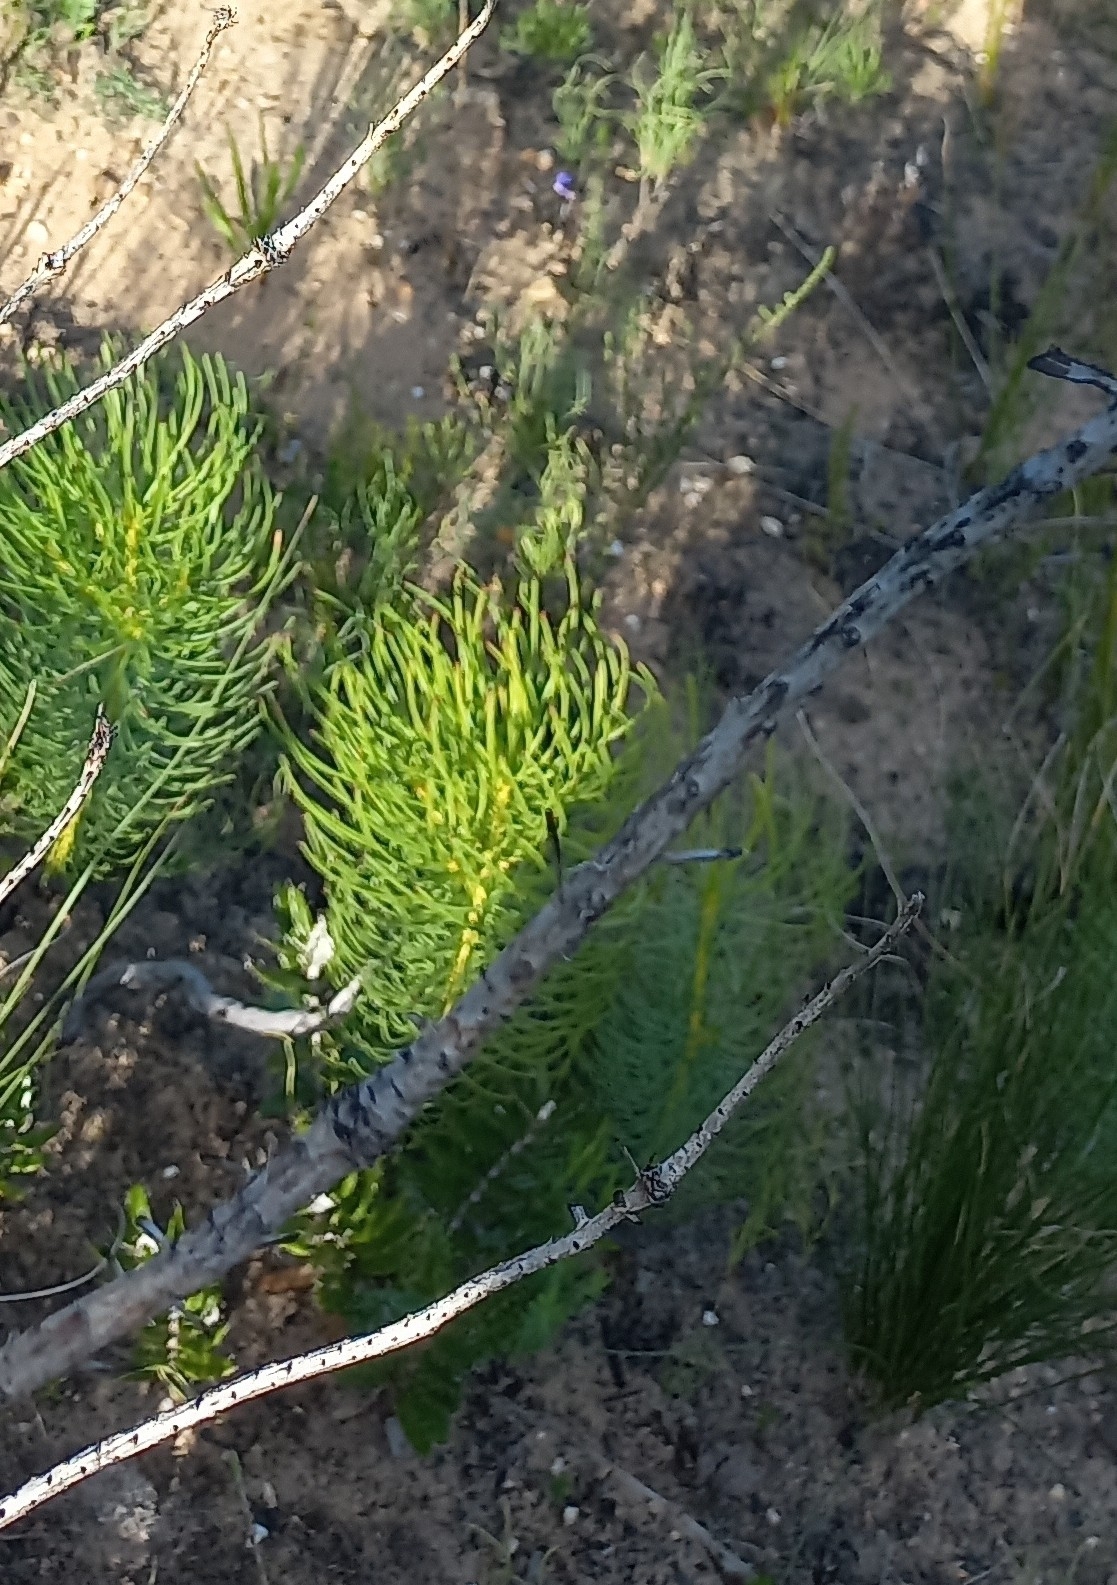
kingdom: Plantae
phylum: Tracheophyta
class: Magnoliopsida
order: Proteales
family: Proteaceae
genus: Leucadendron
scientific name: Leucadendron platyspermum
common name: Plate-seed conebush
